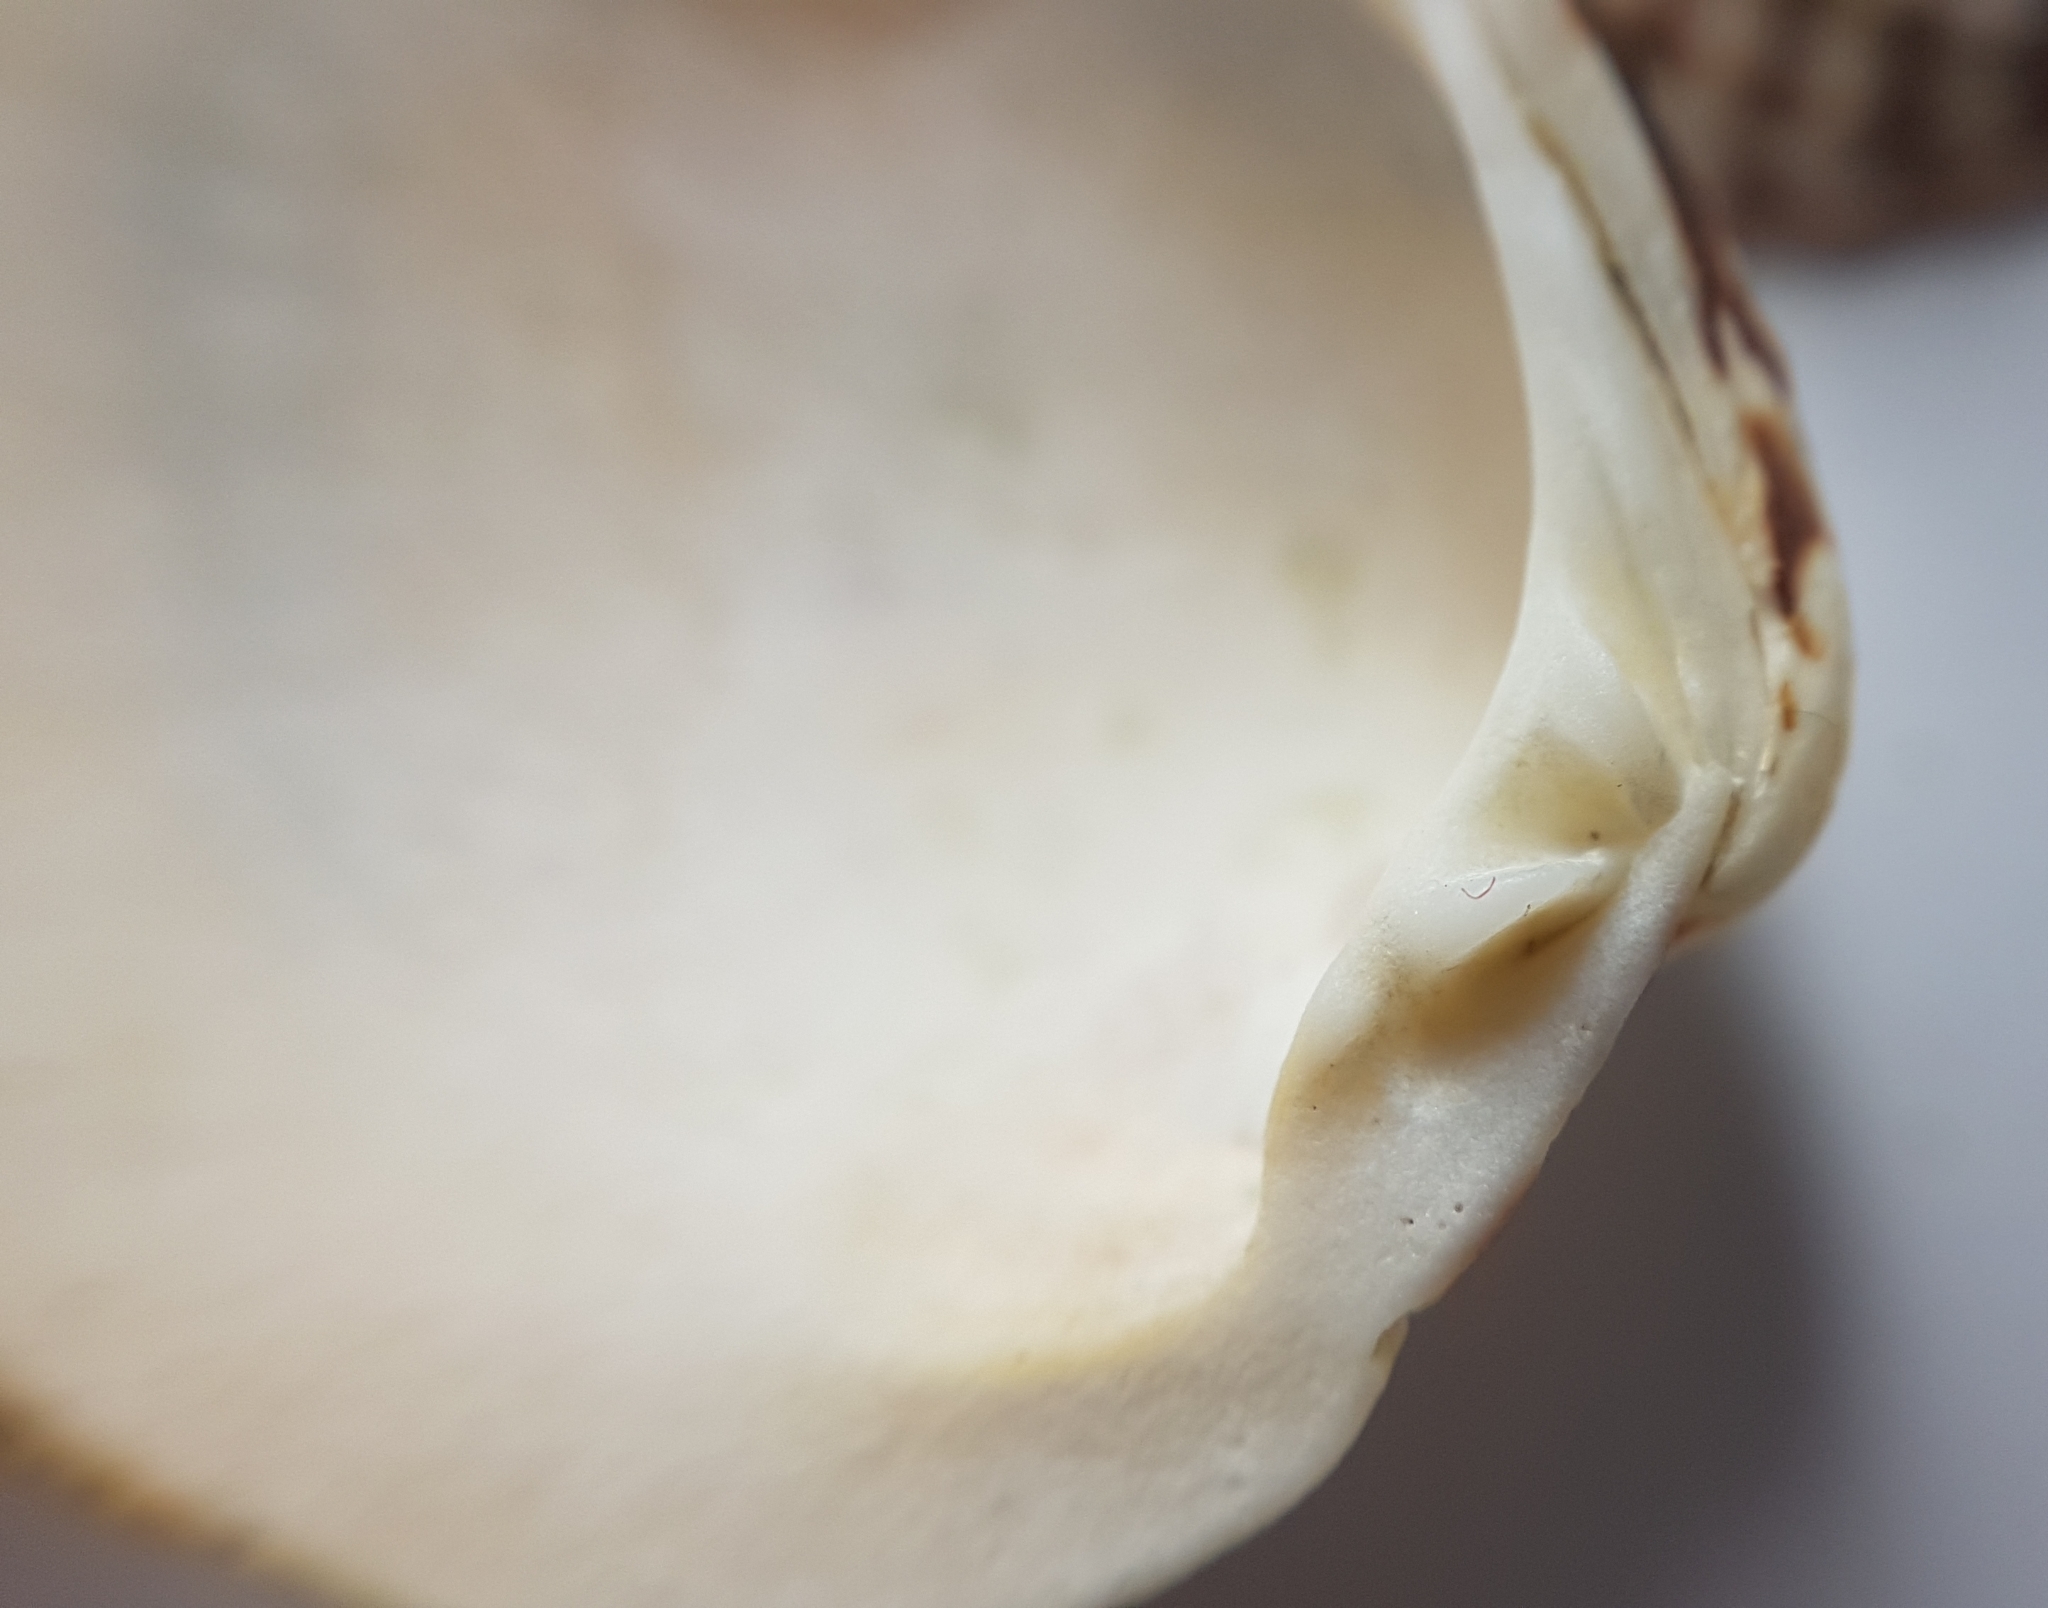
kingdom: Animalia
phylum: Mollusca
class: Bivalvia
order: Venerida
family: Veneridae
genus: Venus
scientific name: Venus verrucosa
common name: Warty venus
